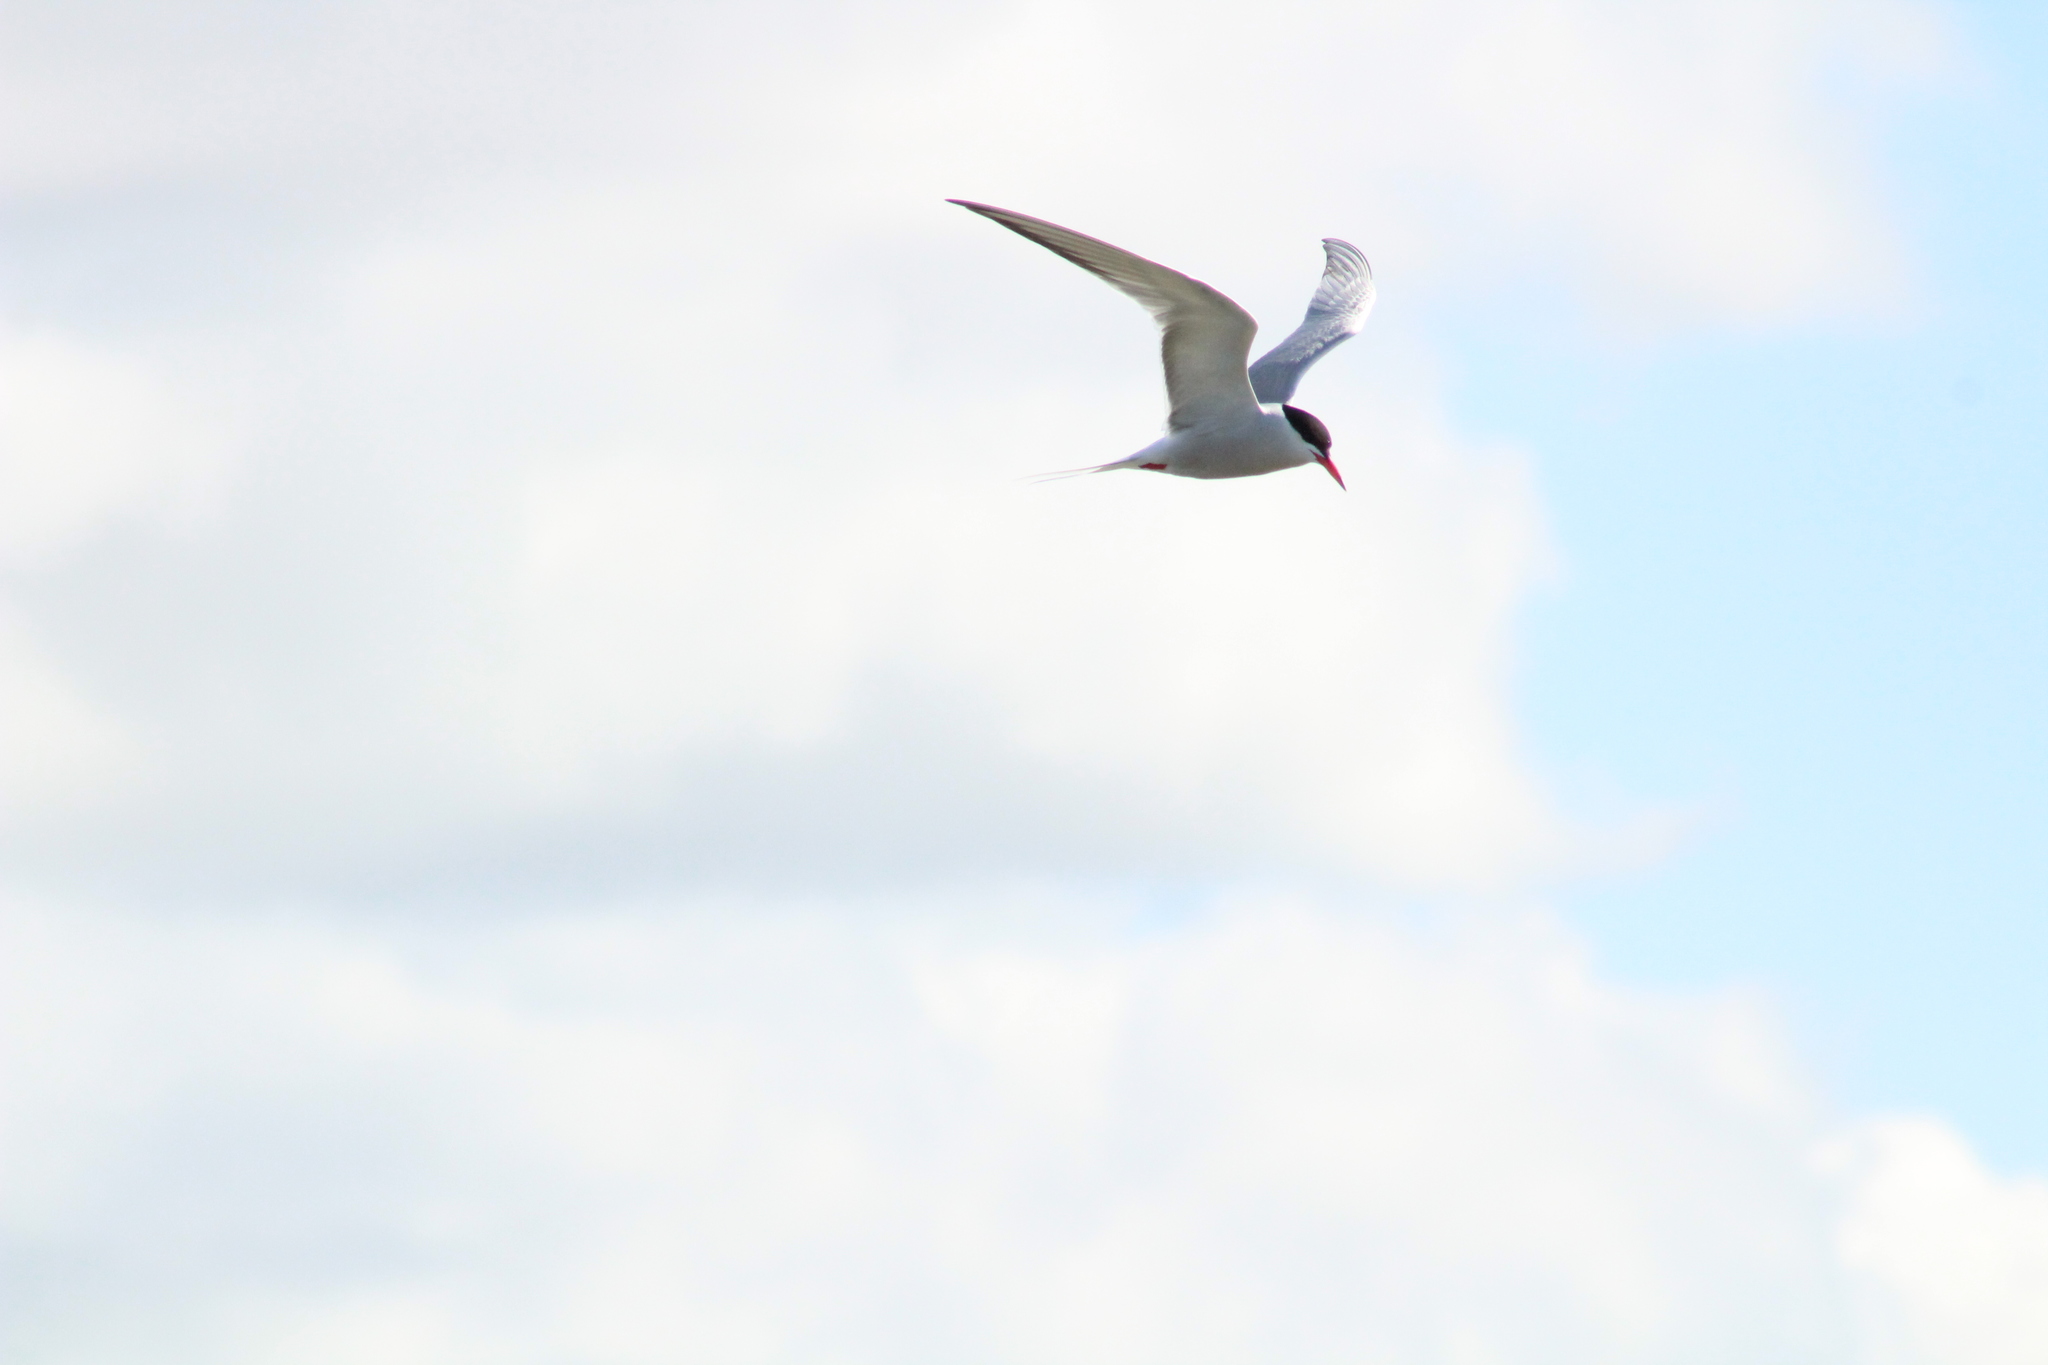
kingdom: Animalia
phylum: Chordata
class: Aves
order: Charadriiformes
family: Laridae
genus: Sterna
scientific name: Sterna hirundo
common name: Common tern
